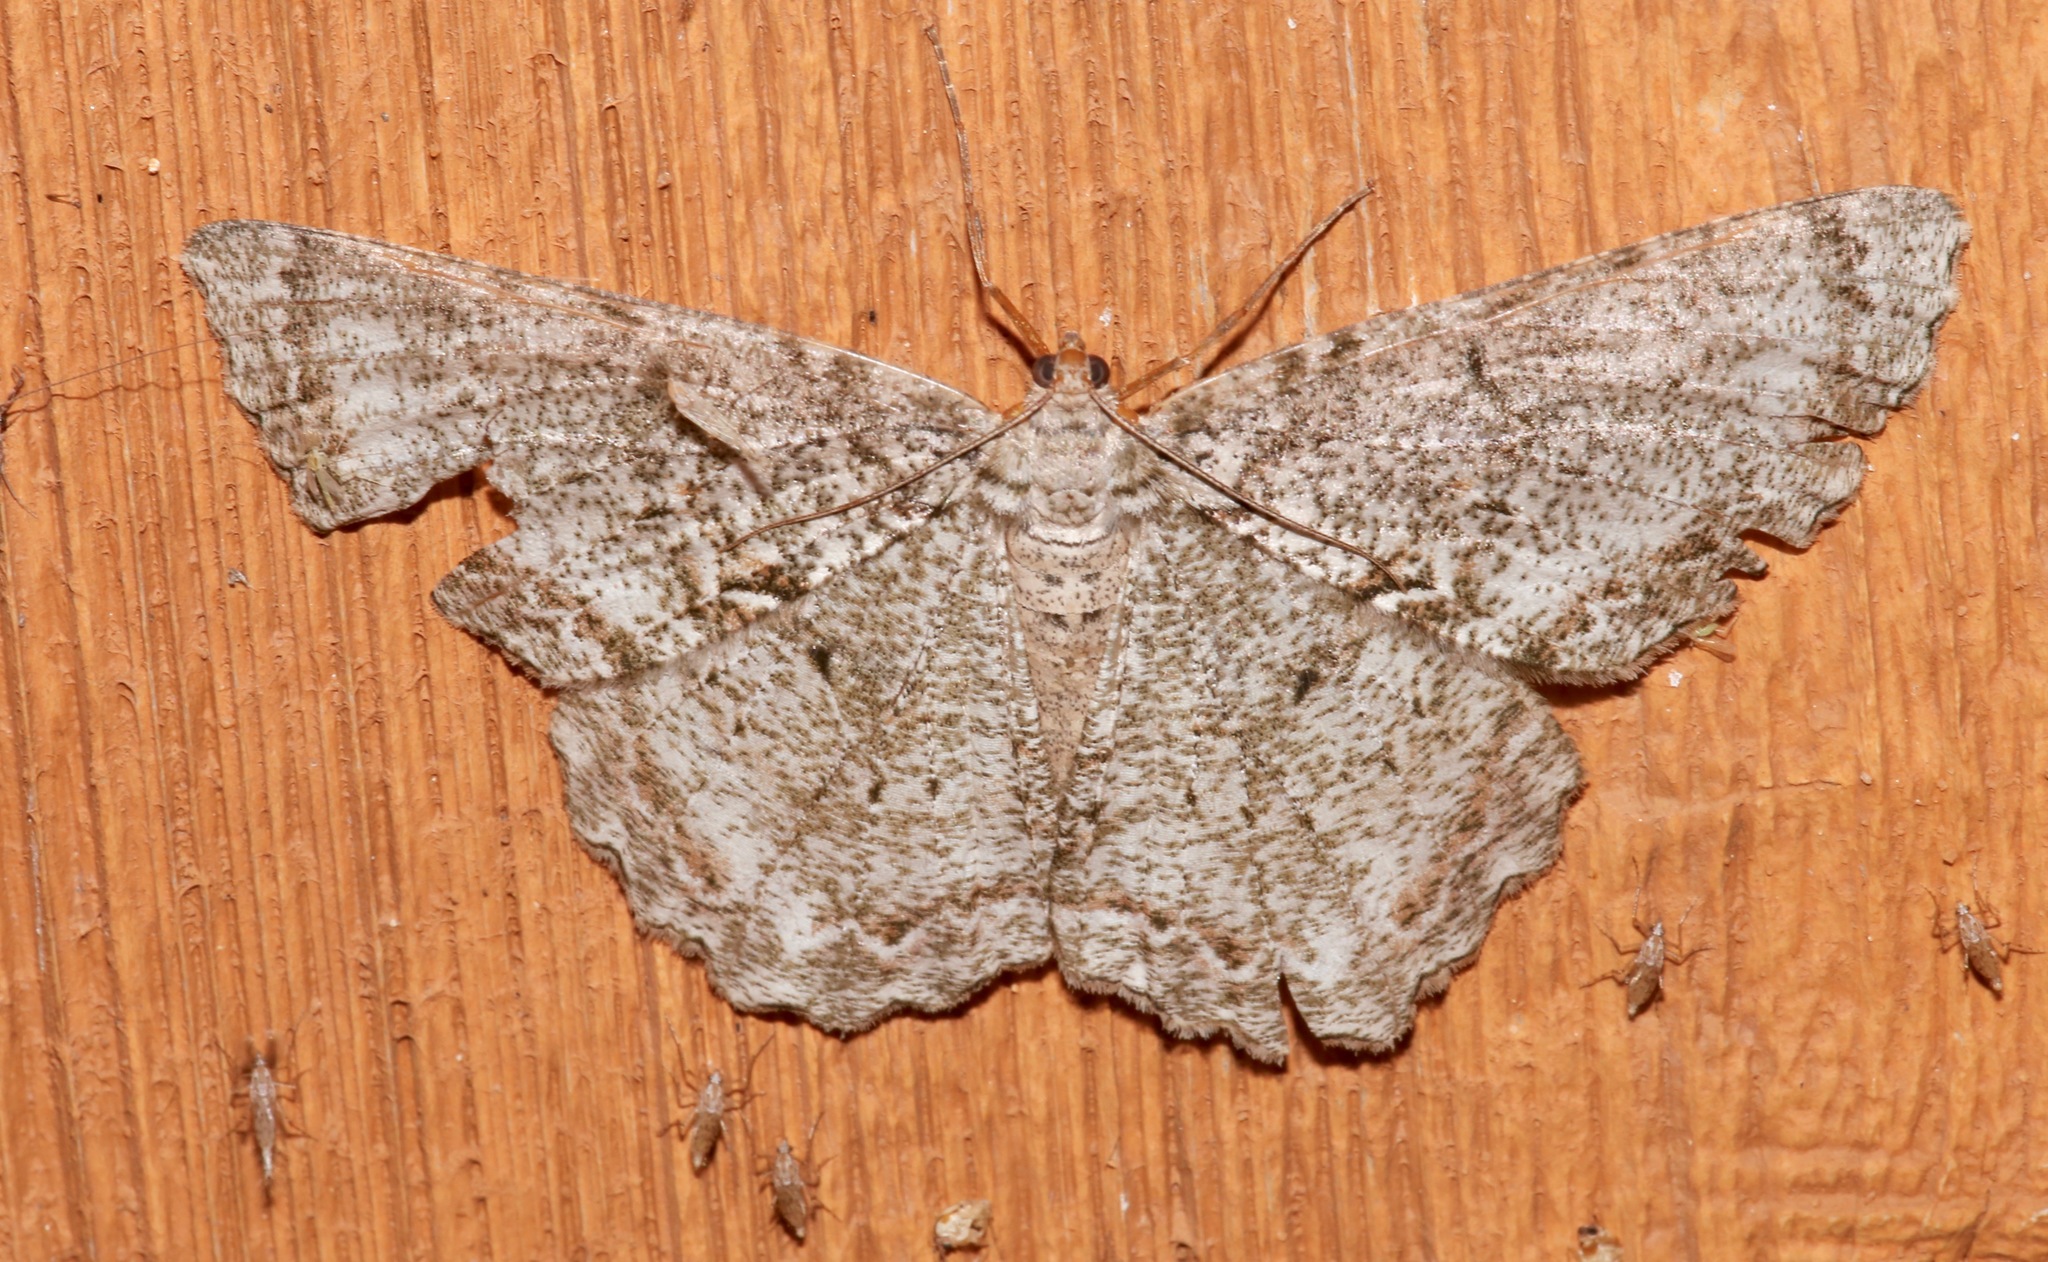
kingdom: Animalia
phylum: Arthropoda
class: Insecta
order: Lepidoptera
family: Geometridae
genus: Epimecis
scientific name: Epimecis hortaria
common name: Tulip-tree beauty
